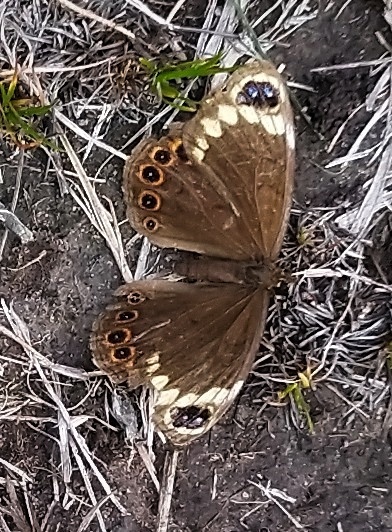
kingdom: Animalia
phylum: Arthropoda
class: Insecta
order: Lepidoptera
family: Nymphalidae
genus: Dira
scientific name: Dira clytus
